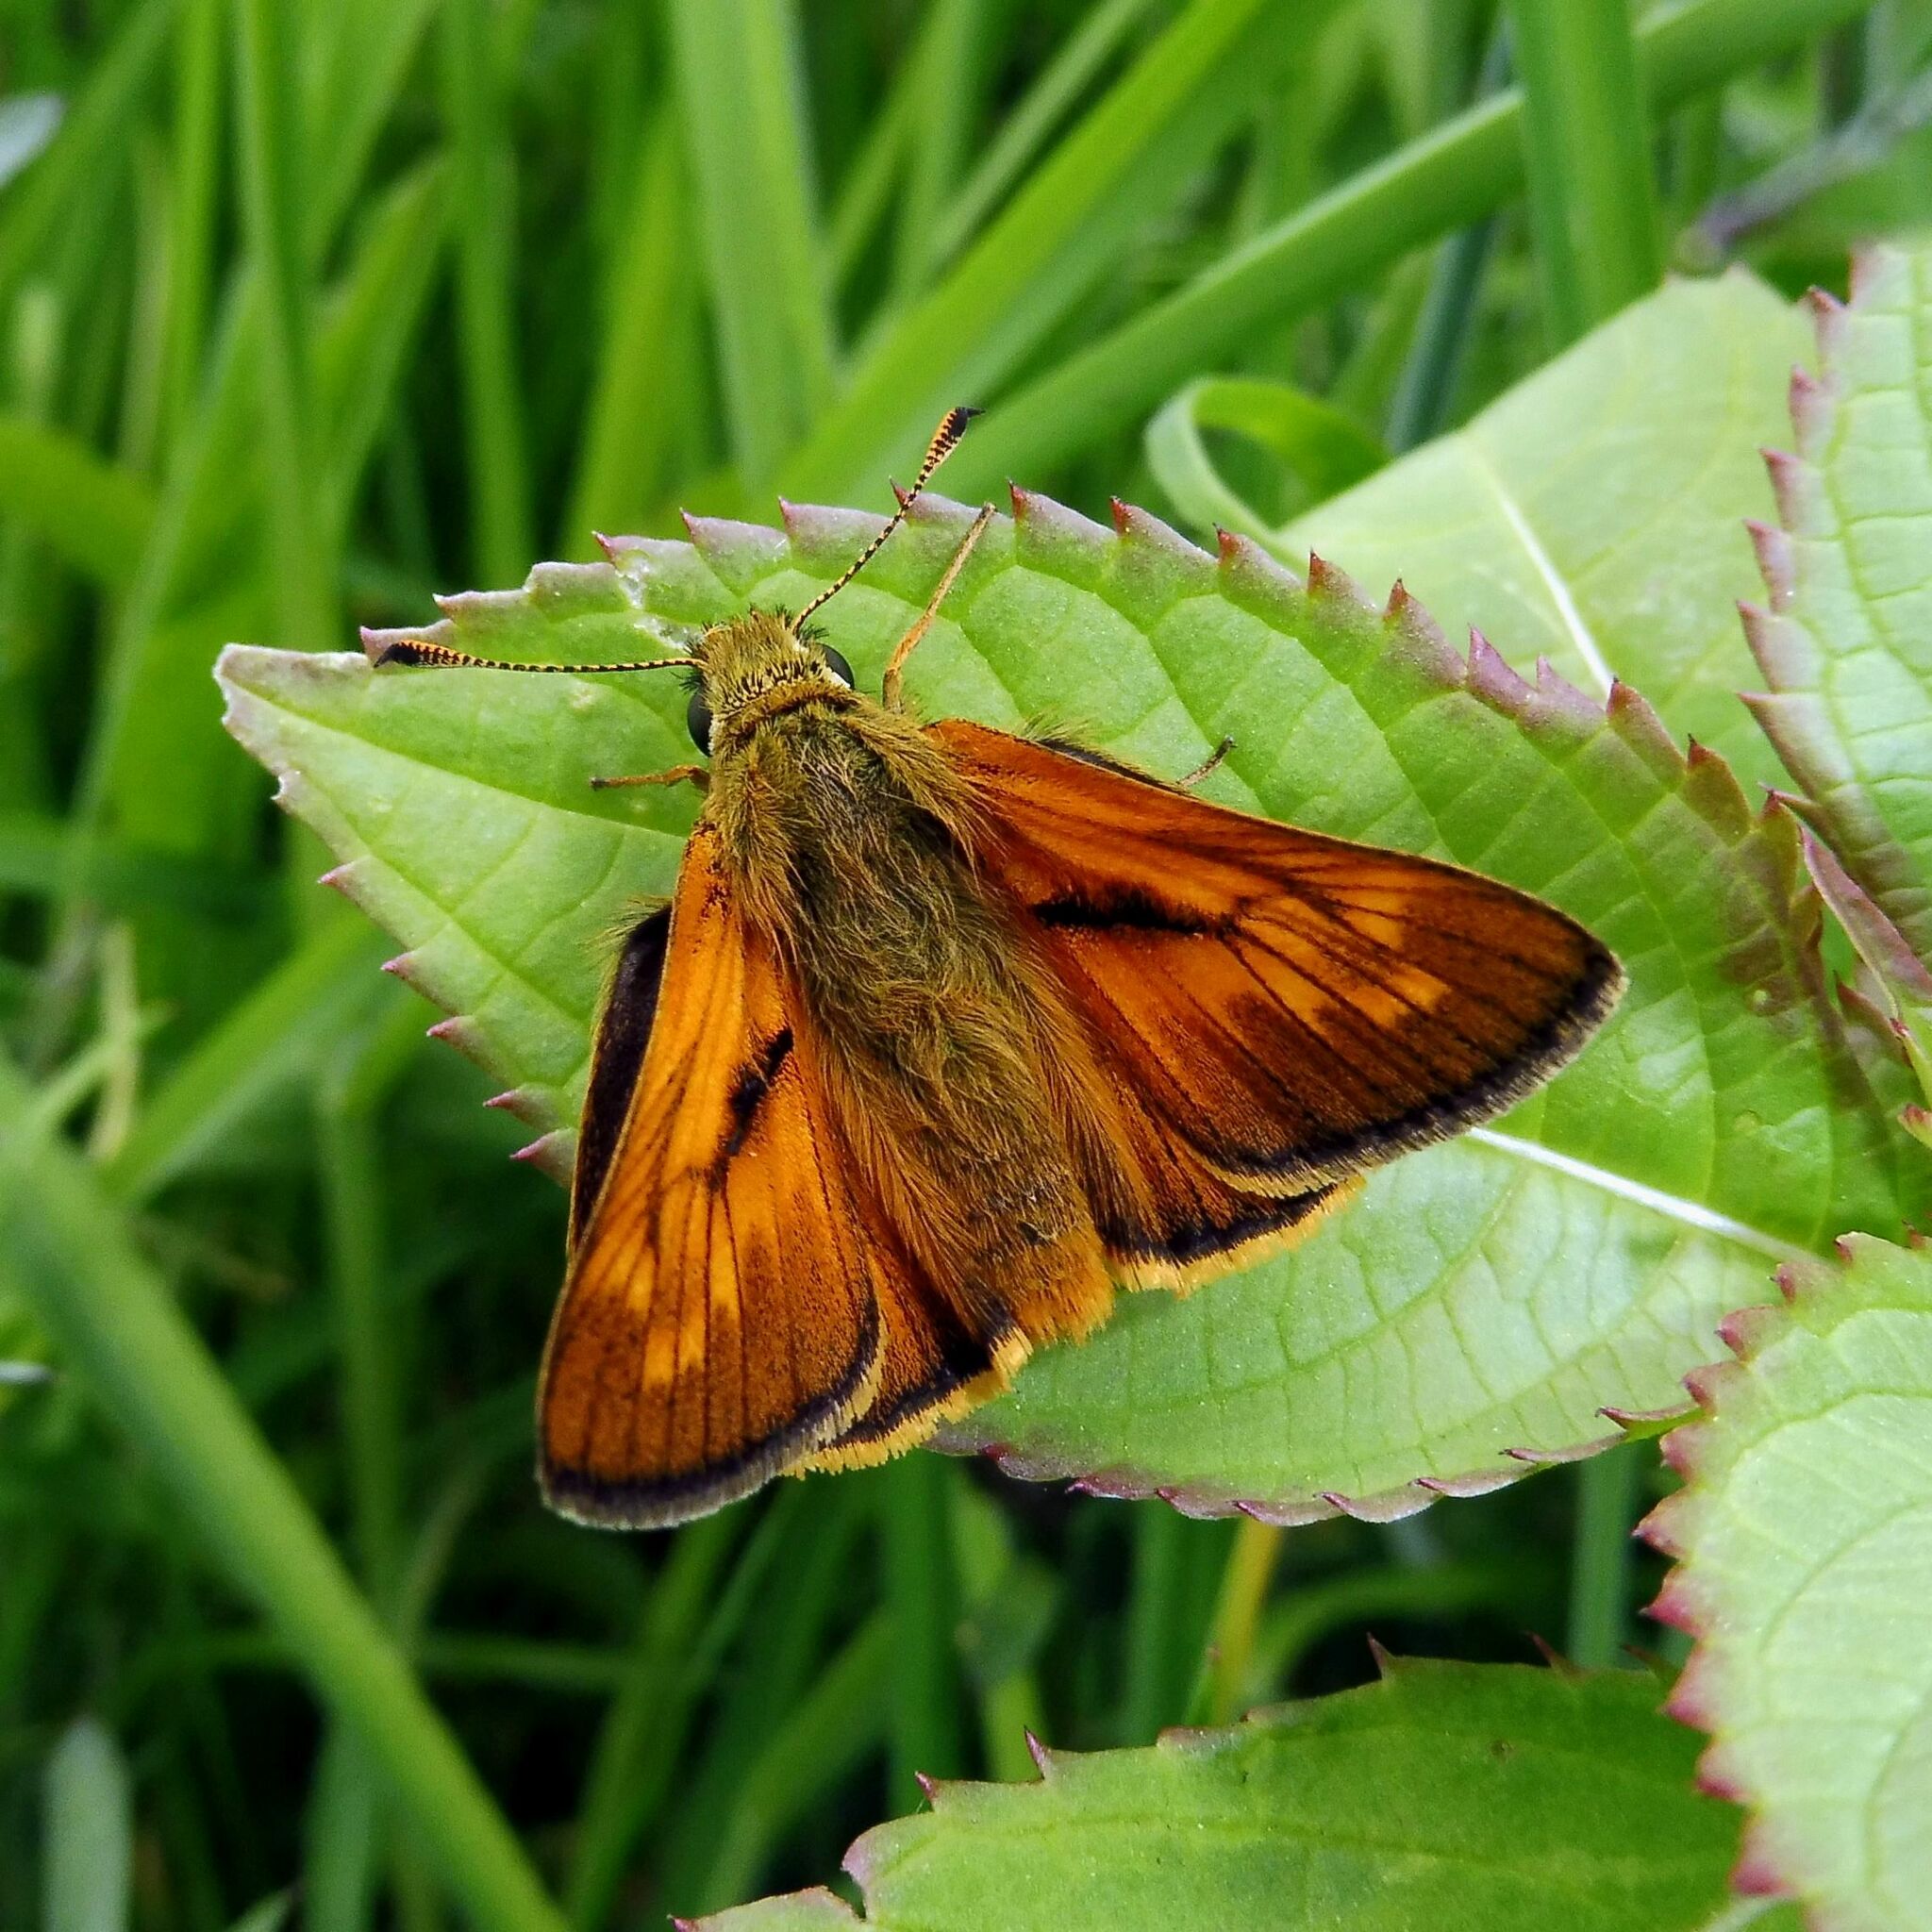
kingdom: Animalia
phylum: Arthropoda
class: Insecta
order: Lepidoptera
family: Hesperiidae
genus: Ochlodes
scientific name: Ochlodes venata
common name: Large skipper
